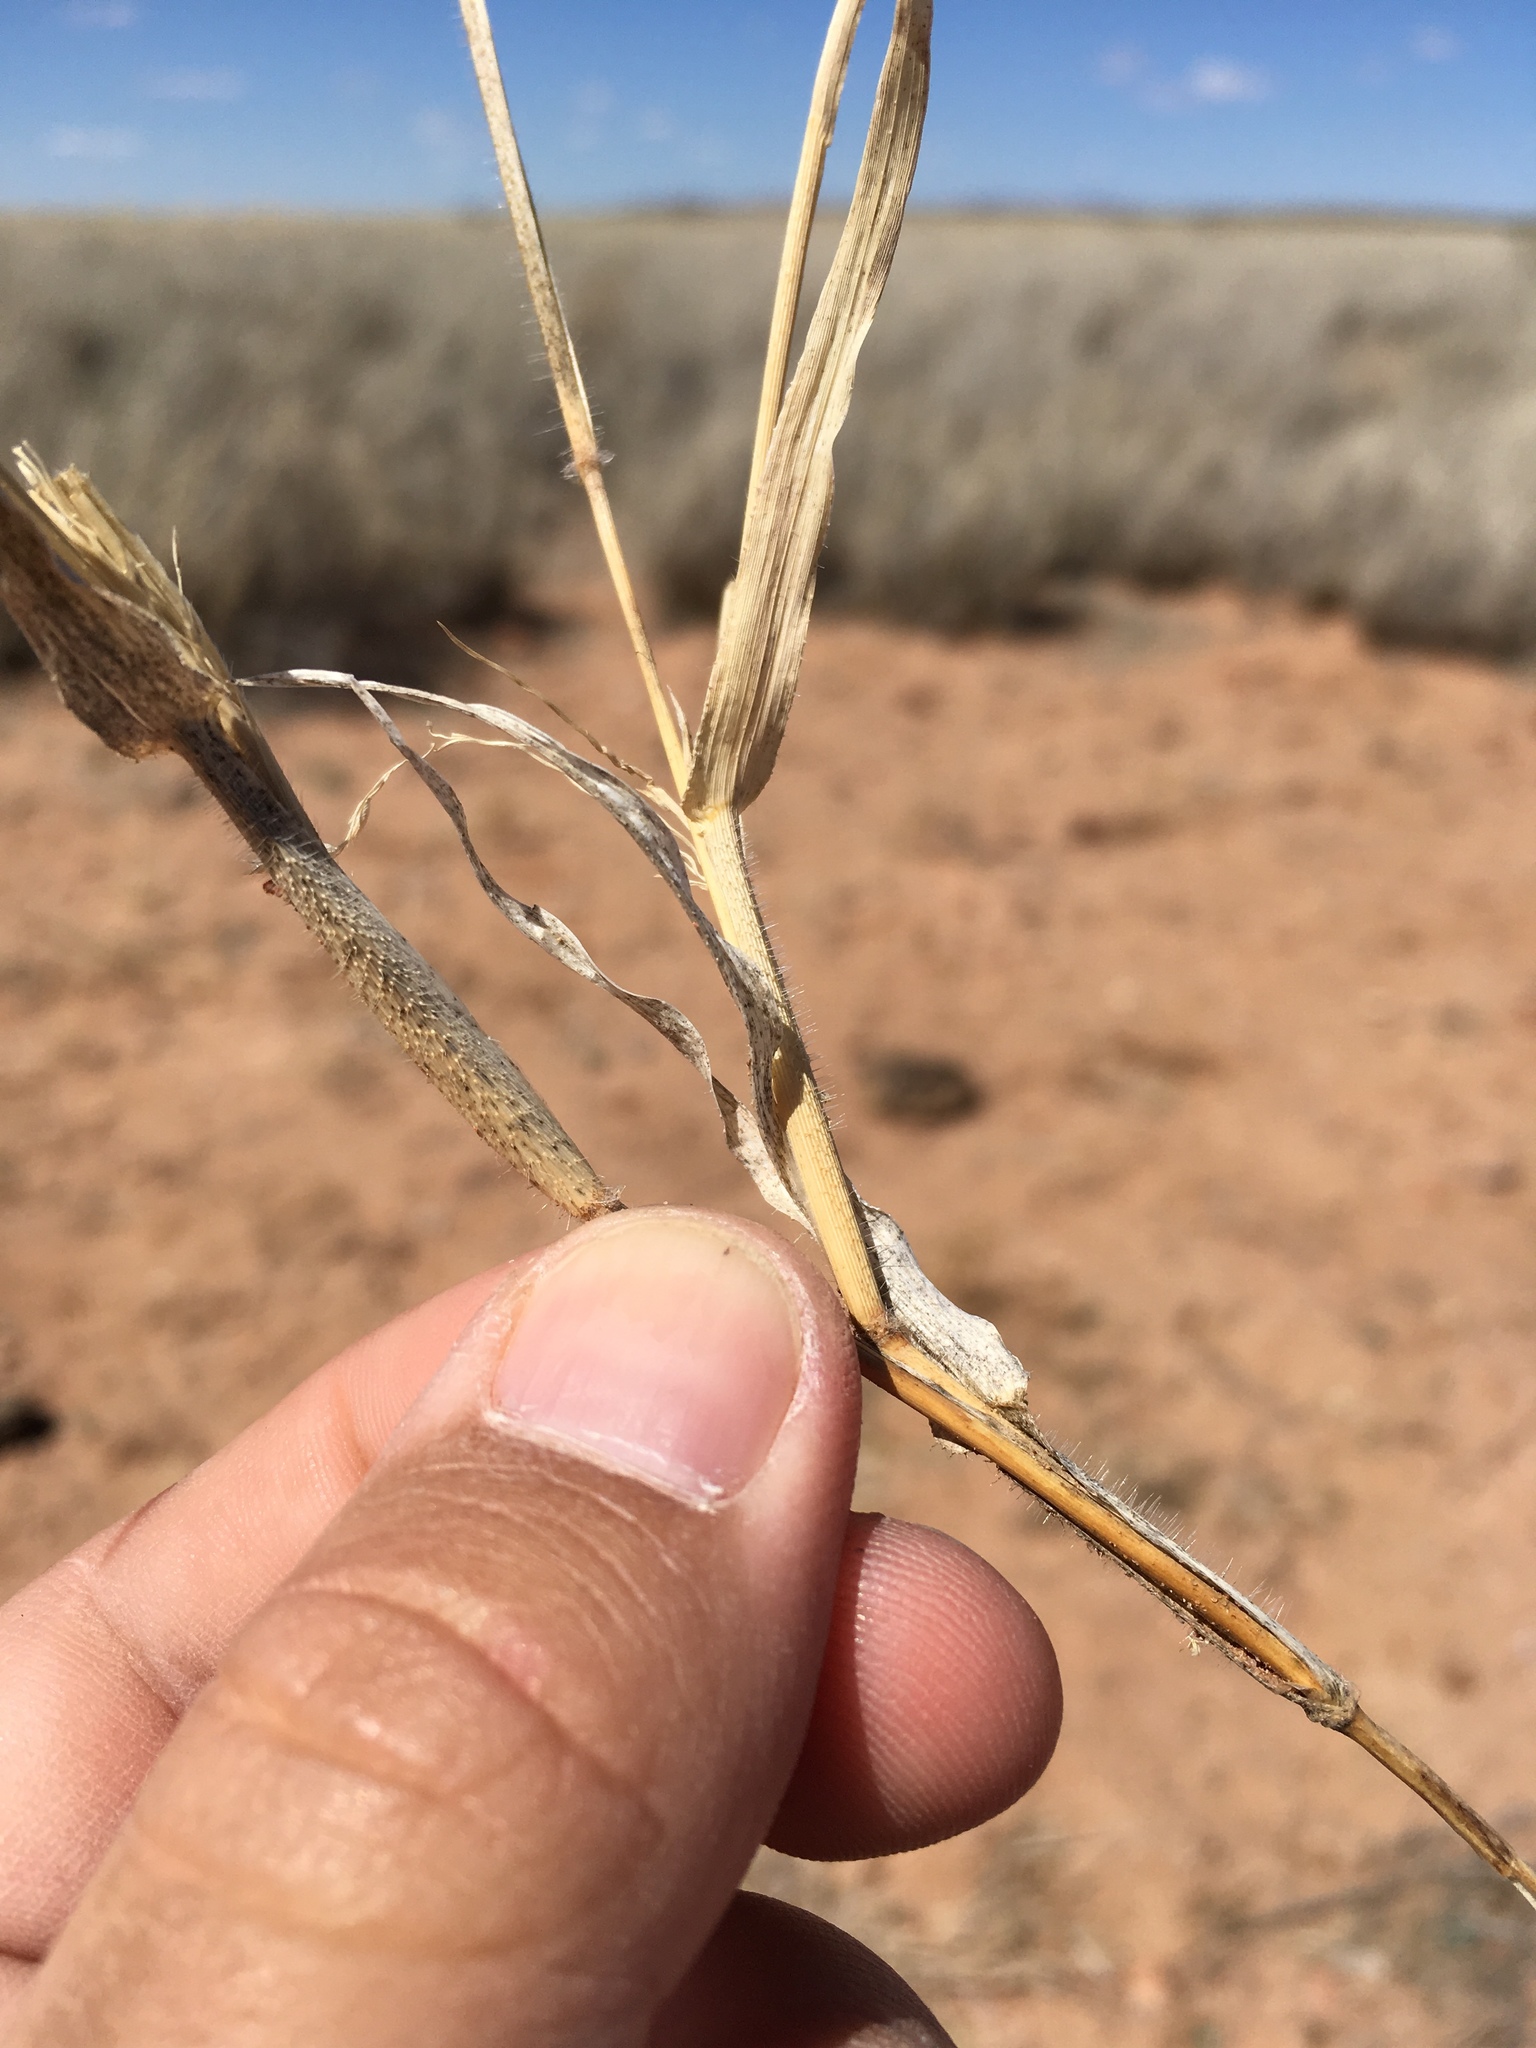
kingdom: Plantae
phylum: Tracheophyta
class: Liliopsida
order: Poales
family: Poaceae
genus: Panicum
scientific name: Panicum hirticaule
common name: Rough-stalk witchgrass
